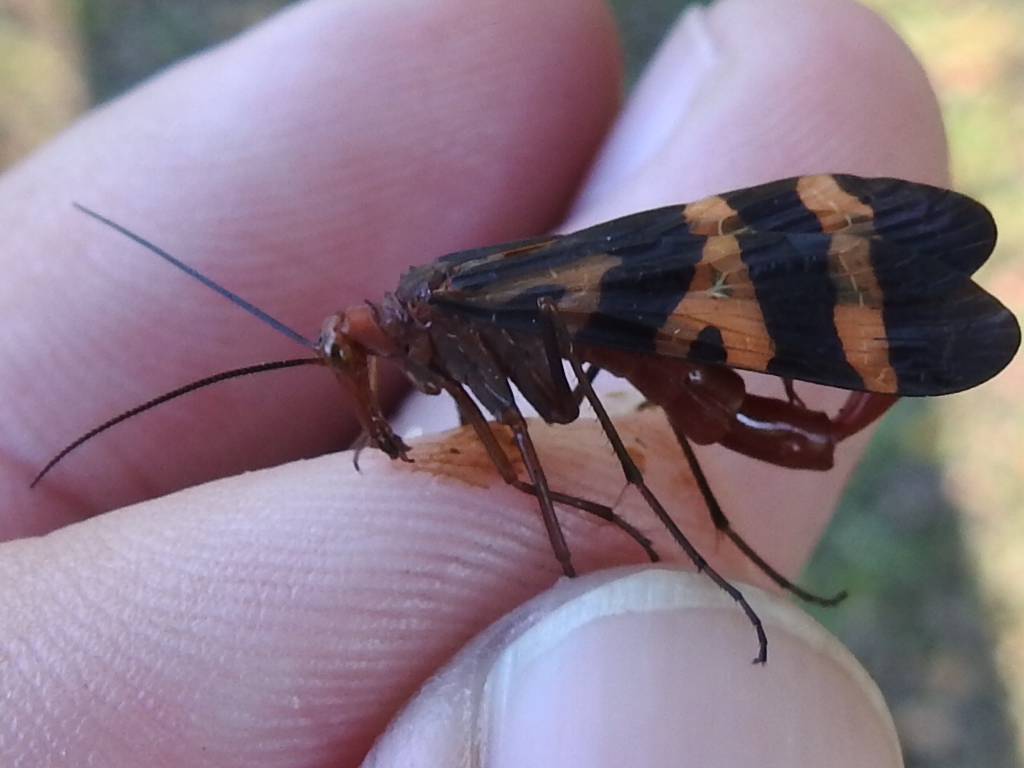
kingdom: Animalia
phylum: Arthropoda
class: Insecta
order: Mecoptera
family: Panorpidae
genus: Panorpa
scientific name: Panorpa nuptialis
